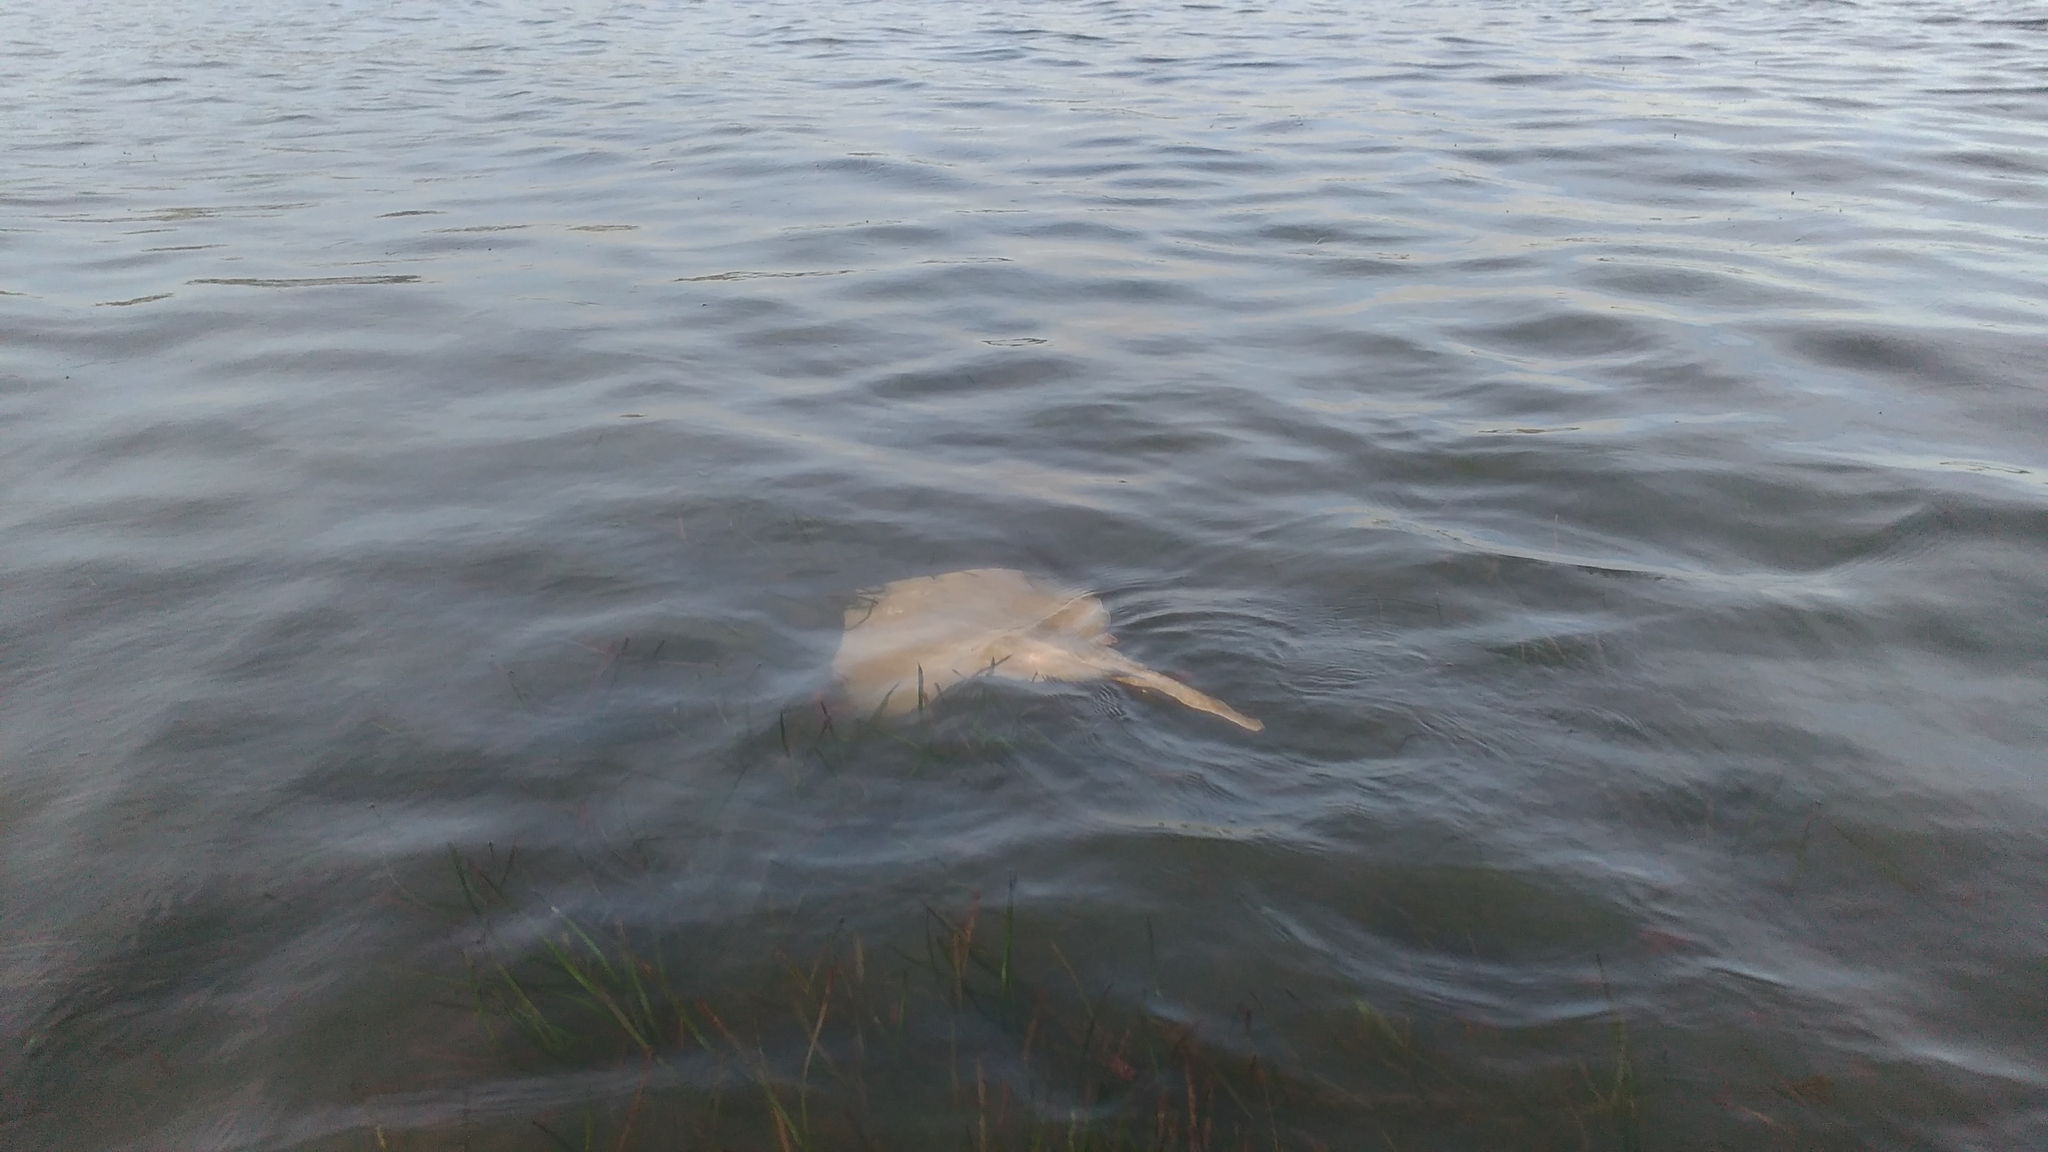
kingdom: Animalia
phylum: Chordata
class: Elasmobranchii
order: Rajiformes
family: Rajidae
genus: Raja
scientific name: Raja undulata
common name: Undulate ray
